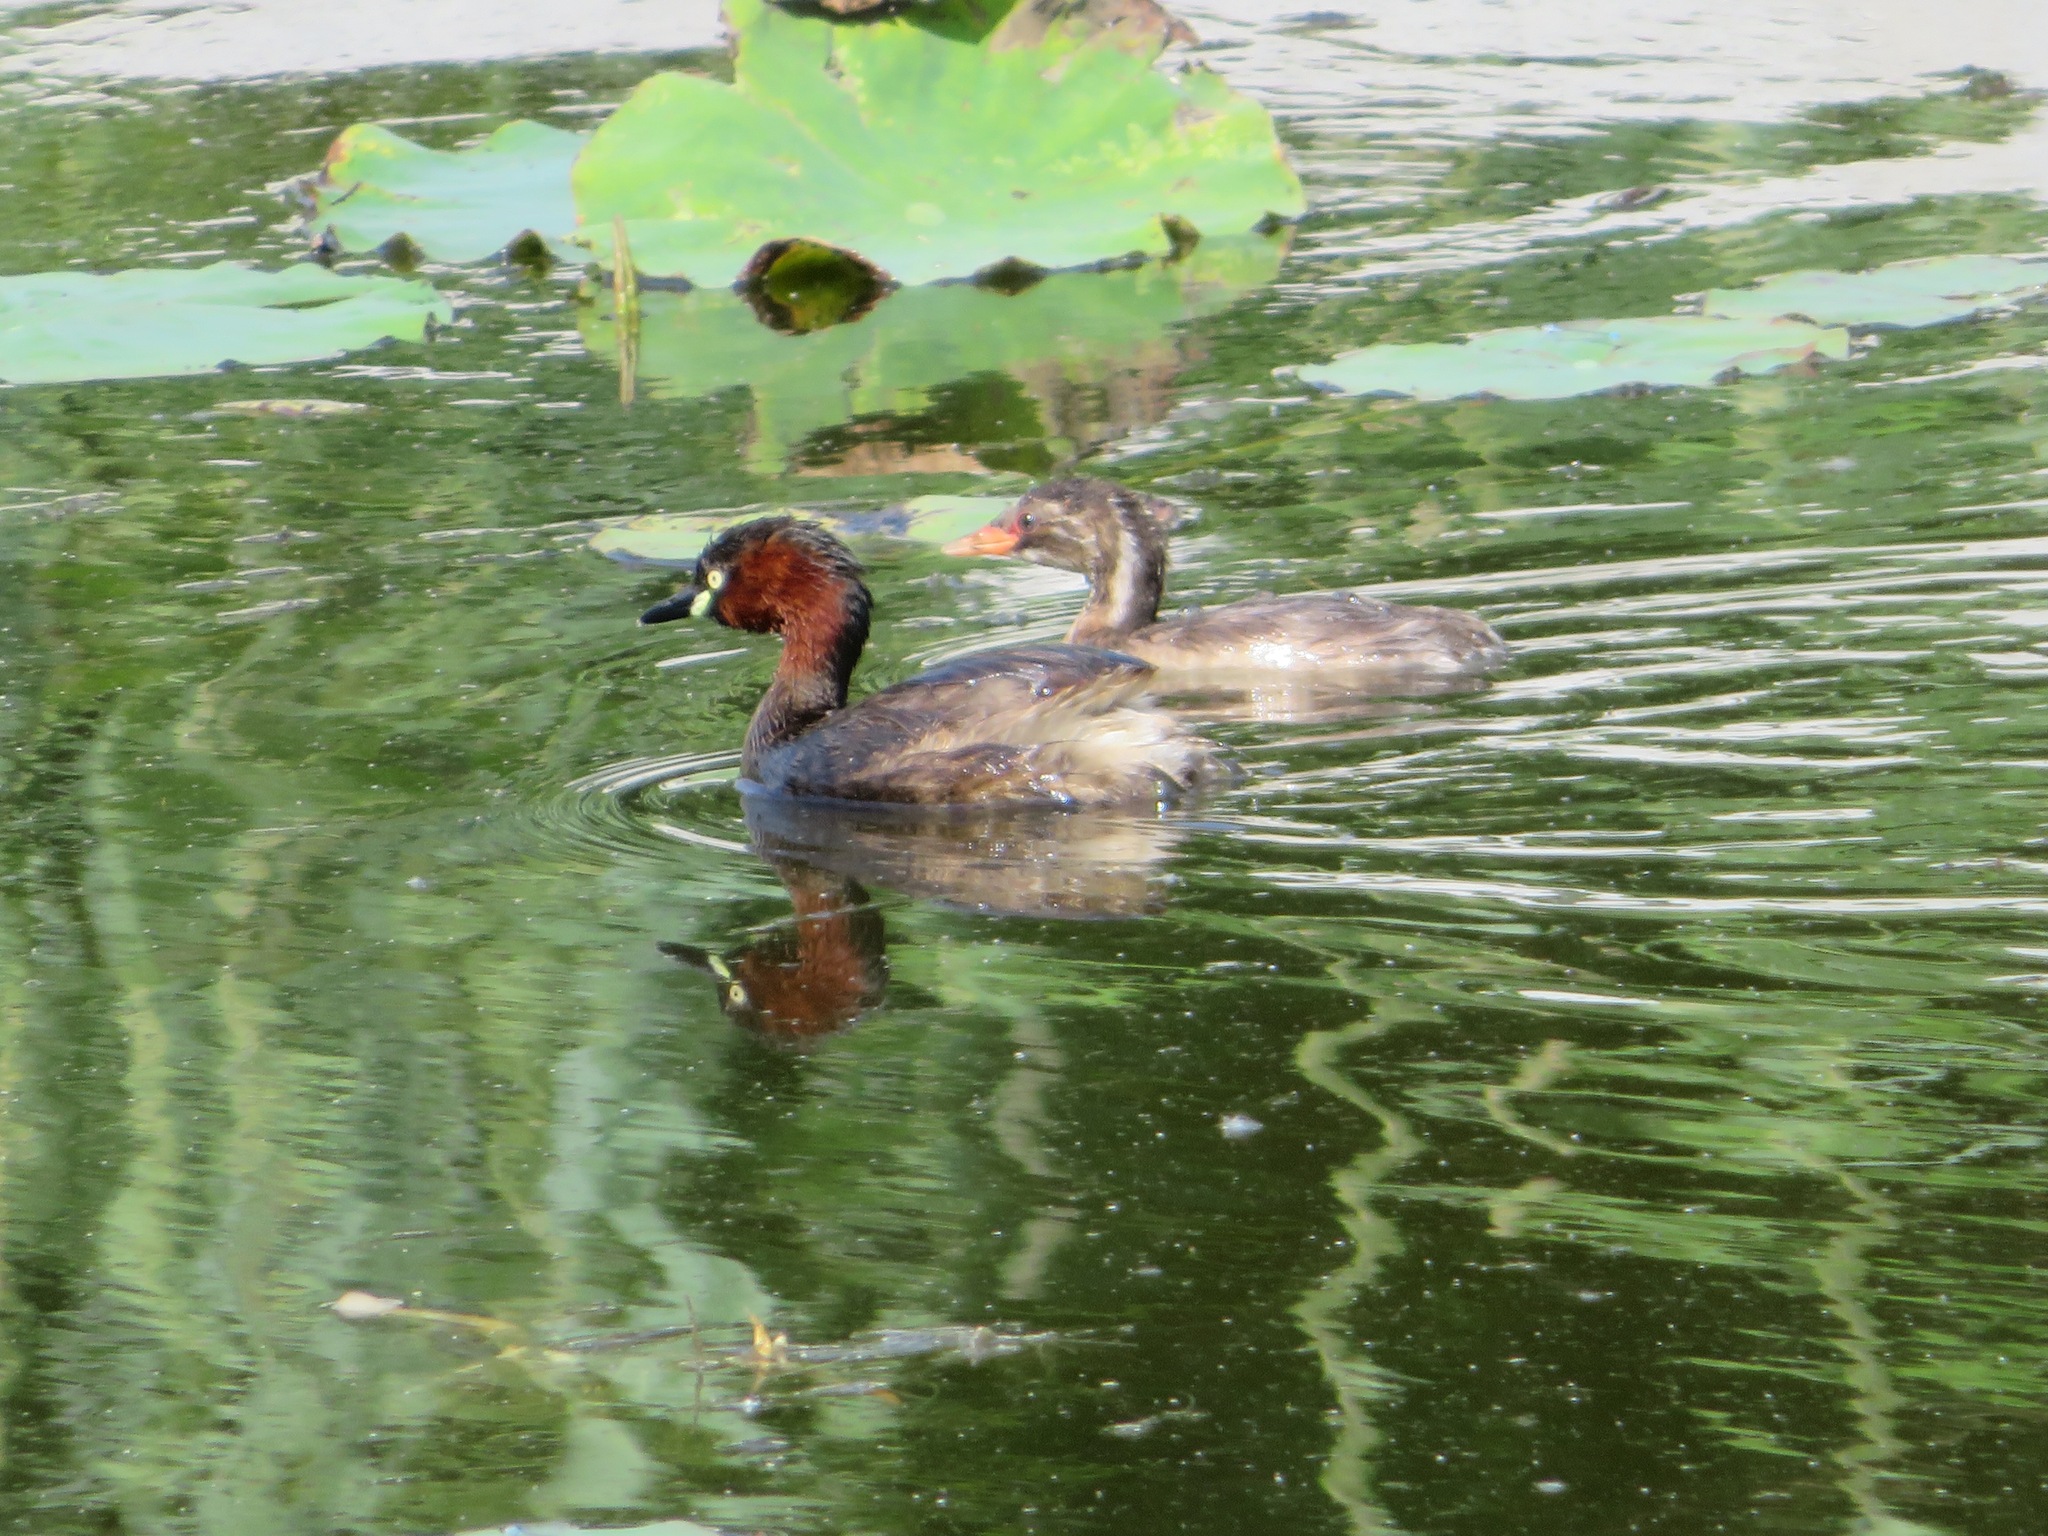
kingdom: Animalia
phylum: Chordata
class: Aves
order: Podicipediformes
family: Podicipedidae
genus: Tachybaptus
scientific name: Tachybaptus ruficollis
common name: Little grebe
